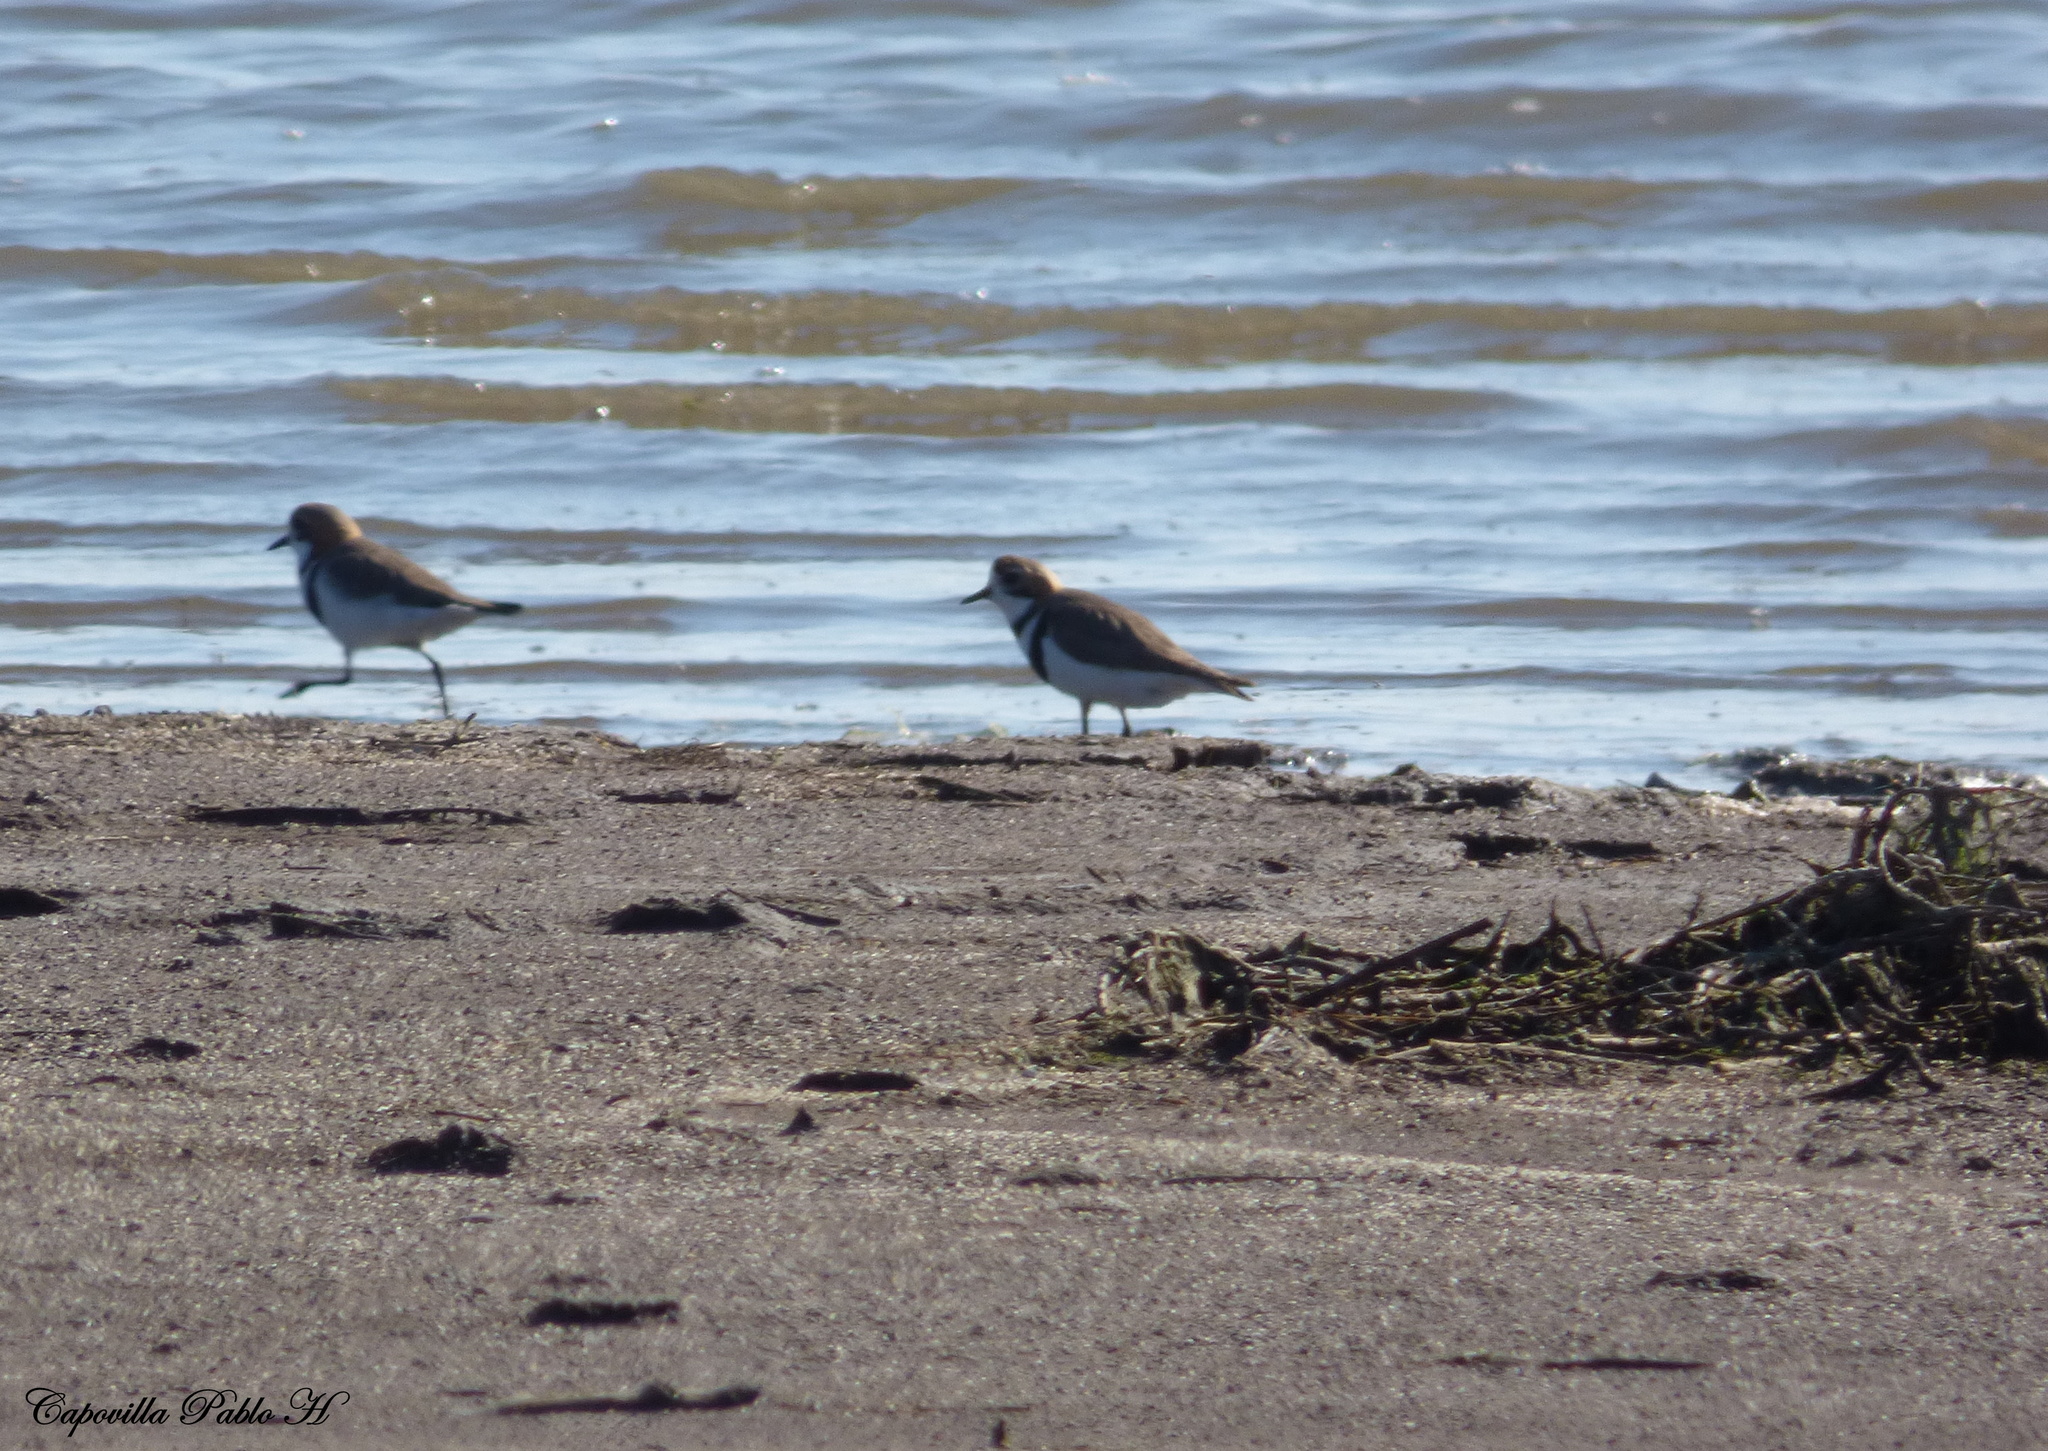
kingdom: Animalia
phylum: Chordata
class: Aves
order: Charadriiformes
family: Charadriidae
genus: Anarhynchus
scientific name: Anarhynchus
